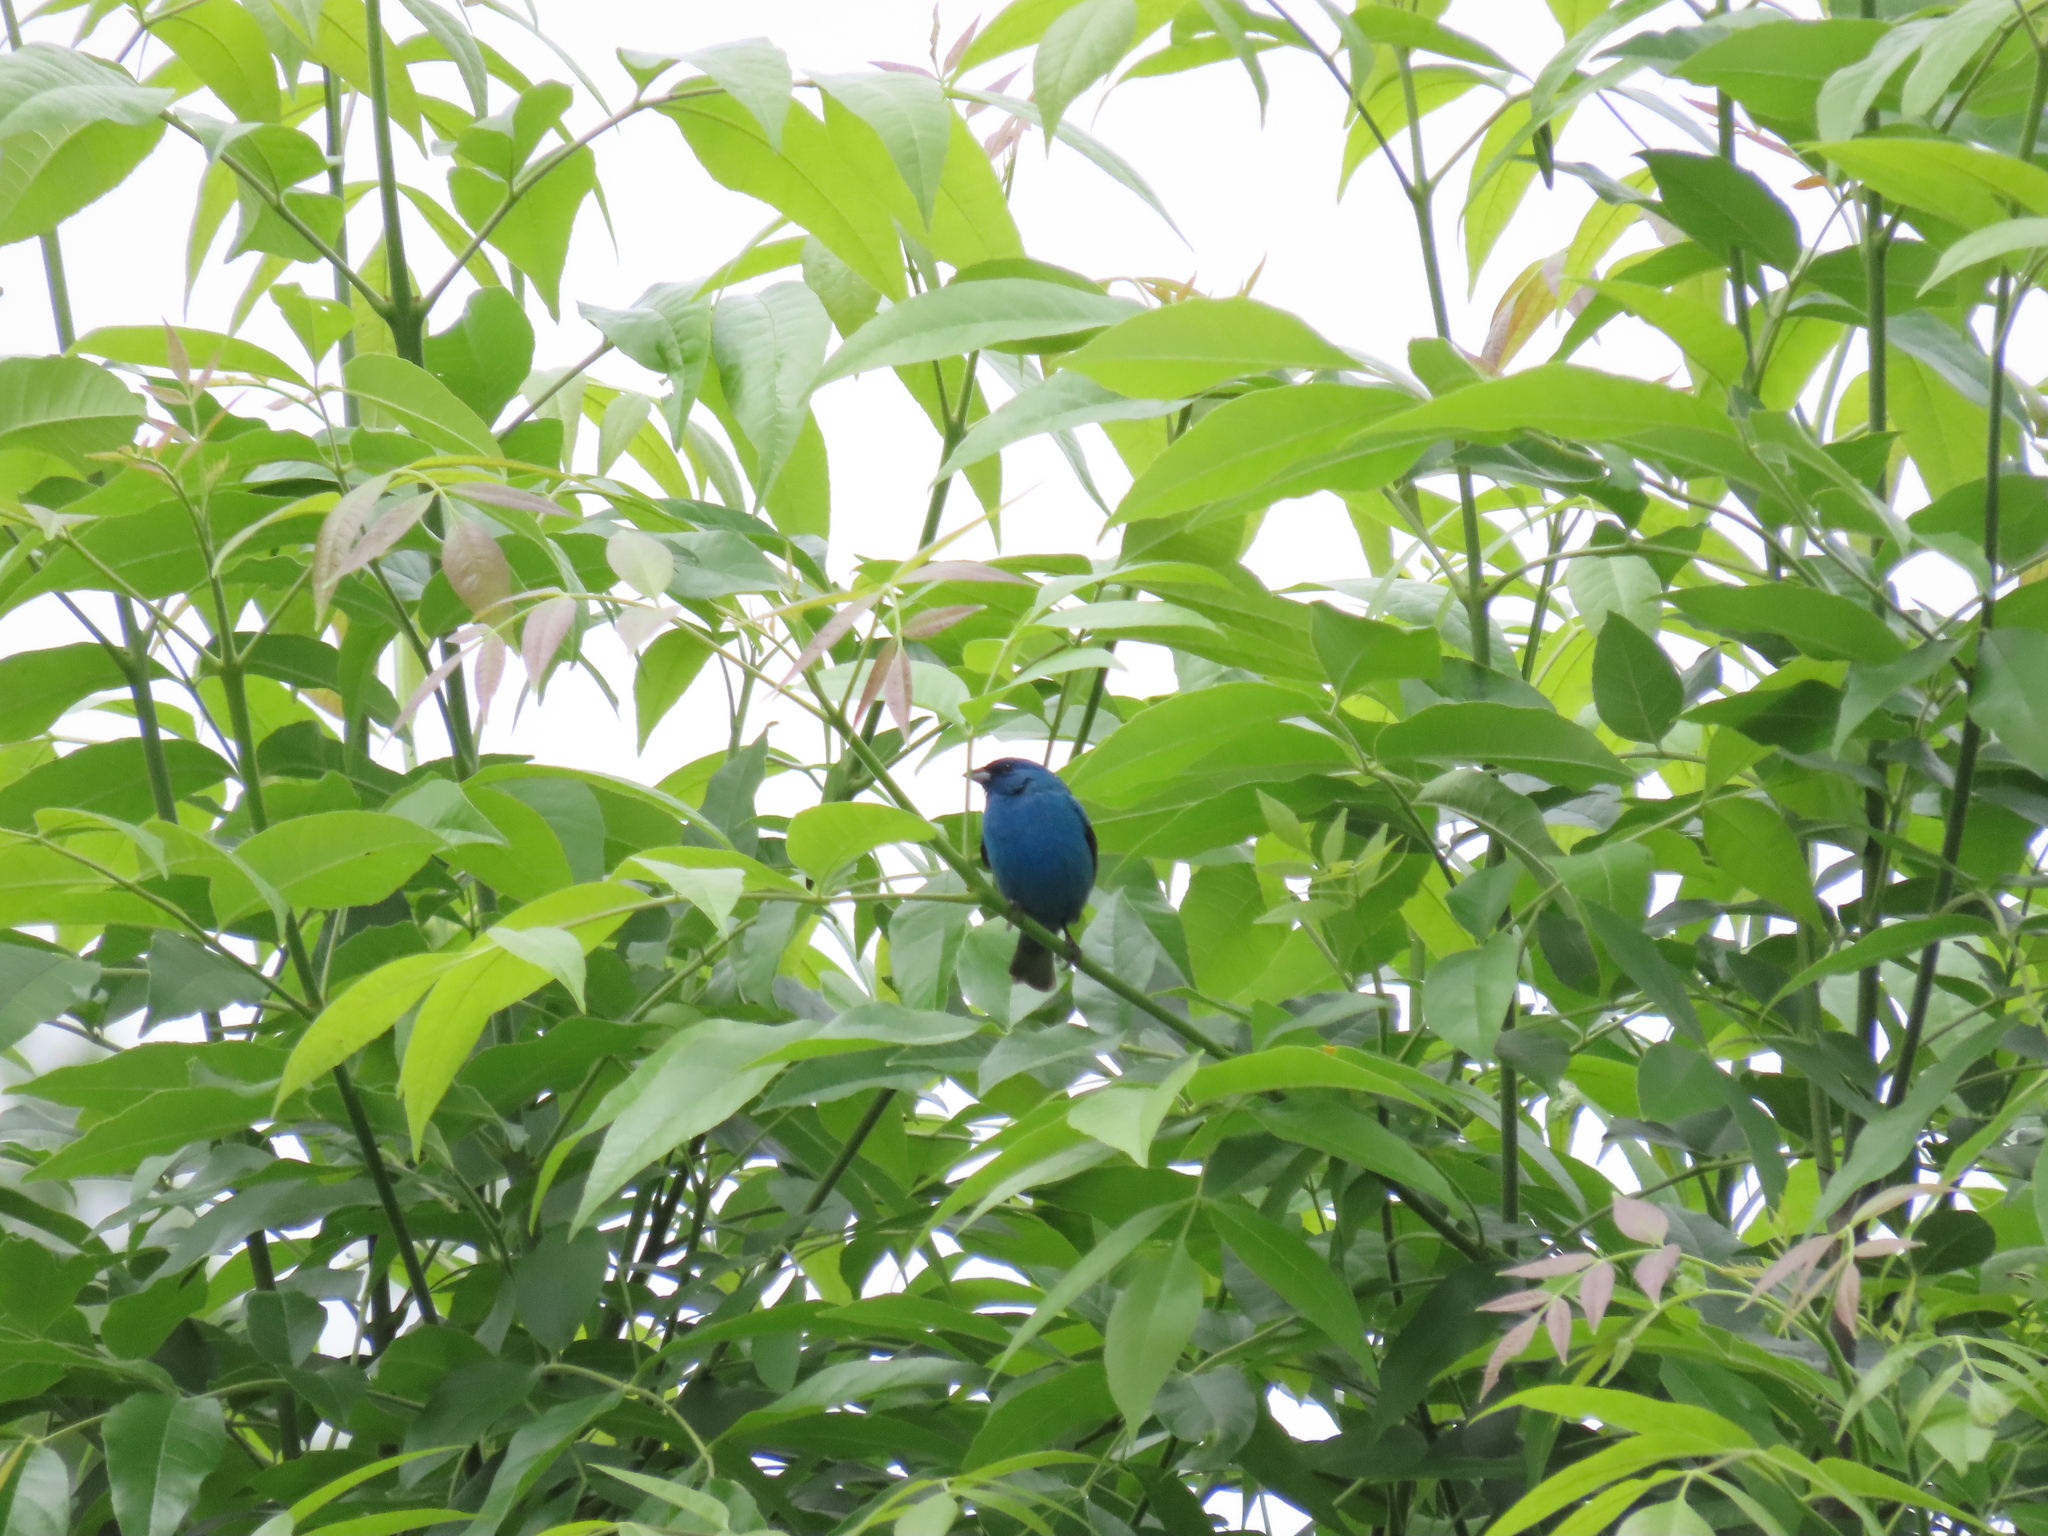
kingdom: Animalia
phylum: Chordata
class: Aves
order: Passeriformes
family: Cardinalidae
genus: Passerina
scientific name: Passerina cyanea
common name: Indigo bunting
